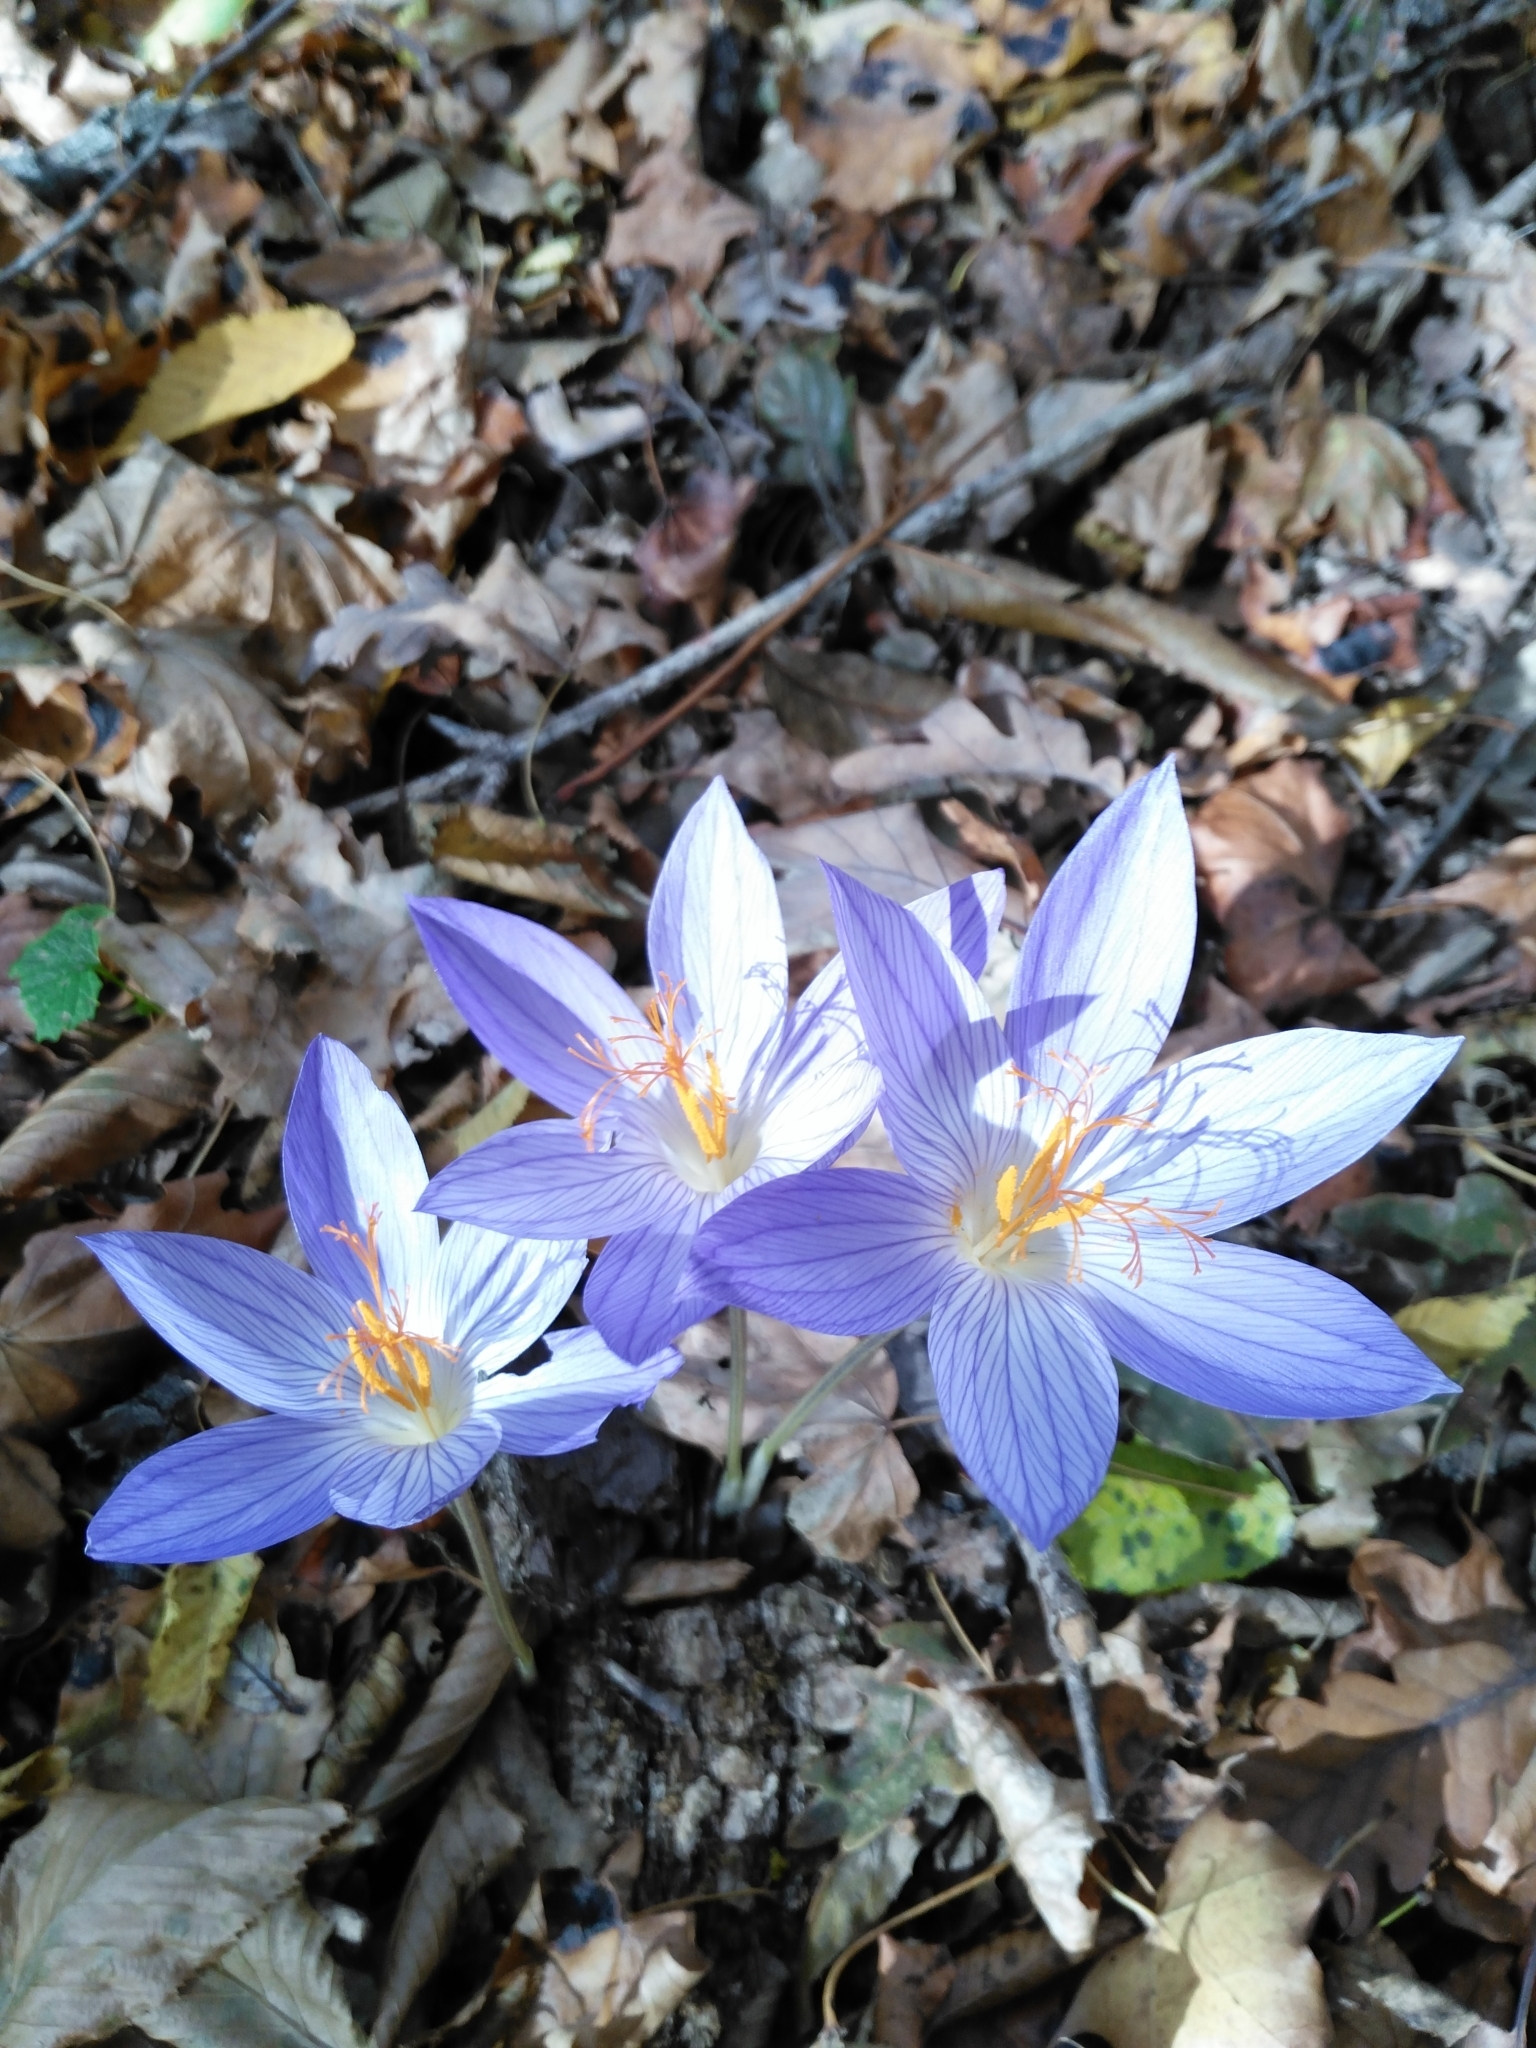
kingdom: Plantae
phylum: Tracheophyta
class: Liliopsida
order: Asparagales
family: Iridaceae
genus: Crocus
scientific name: Crocus speciosus
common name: Bieberstein's crocus
